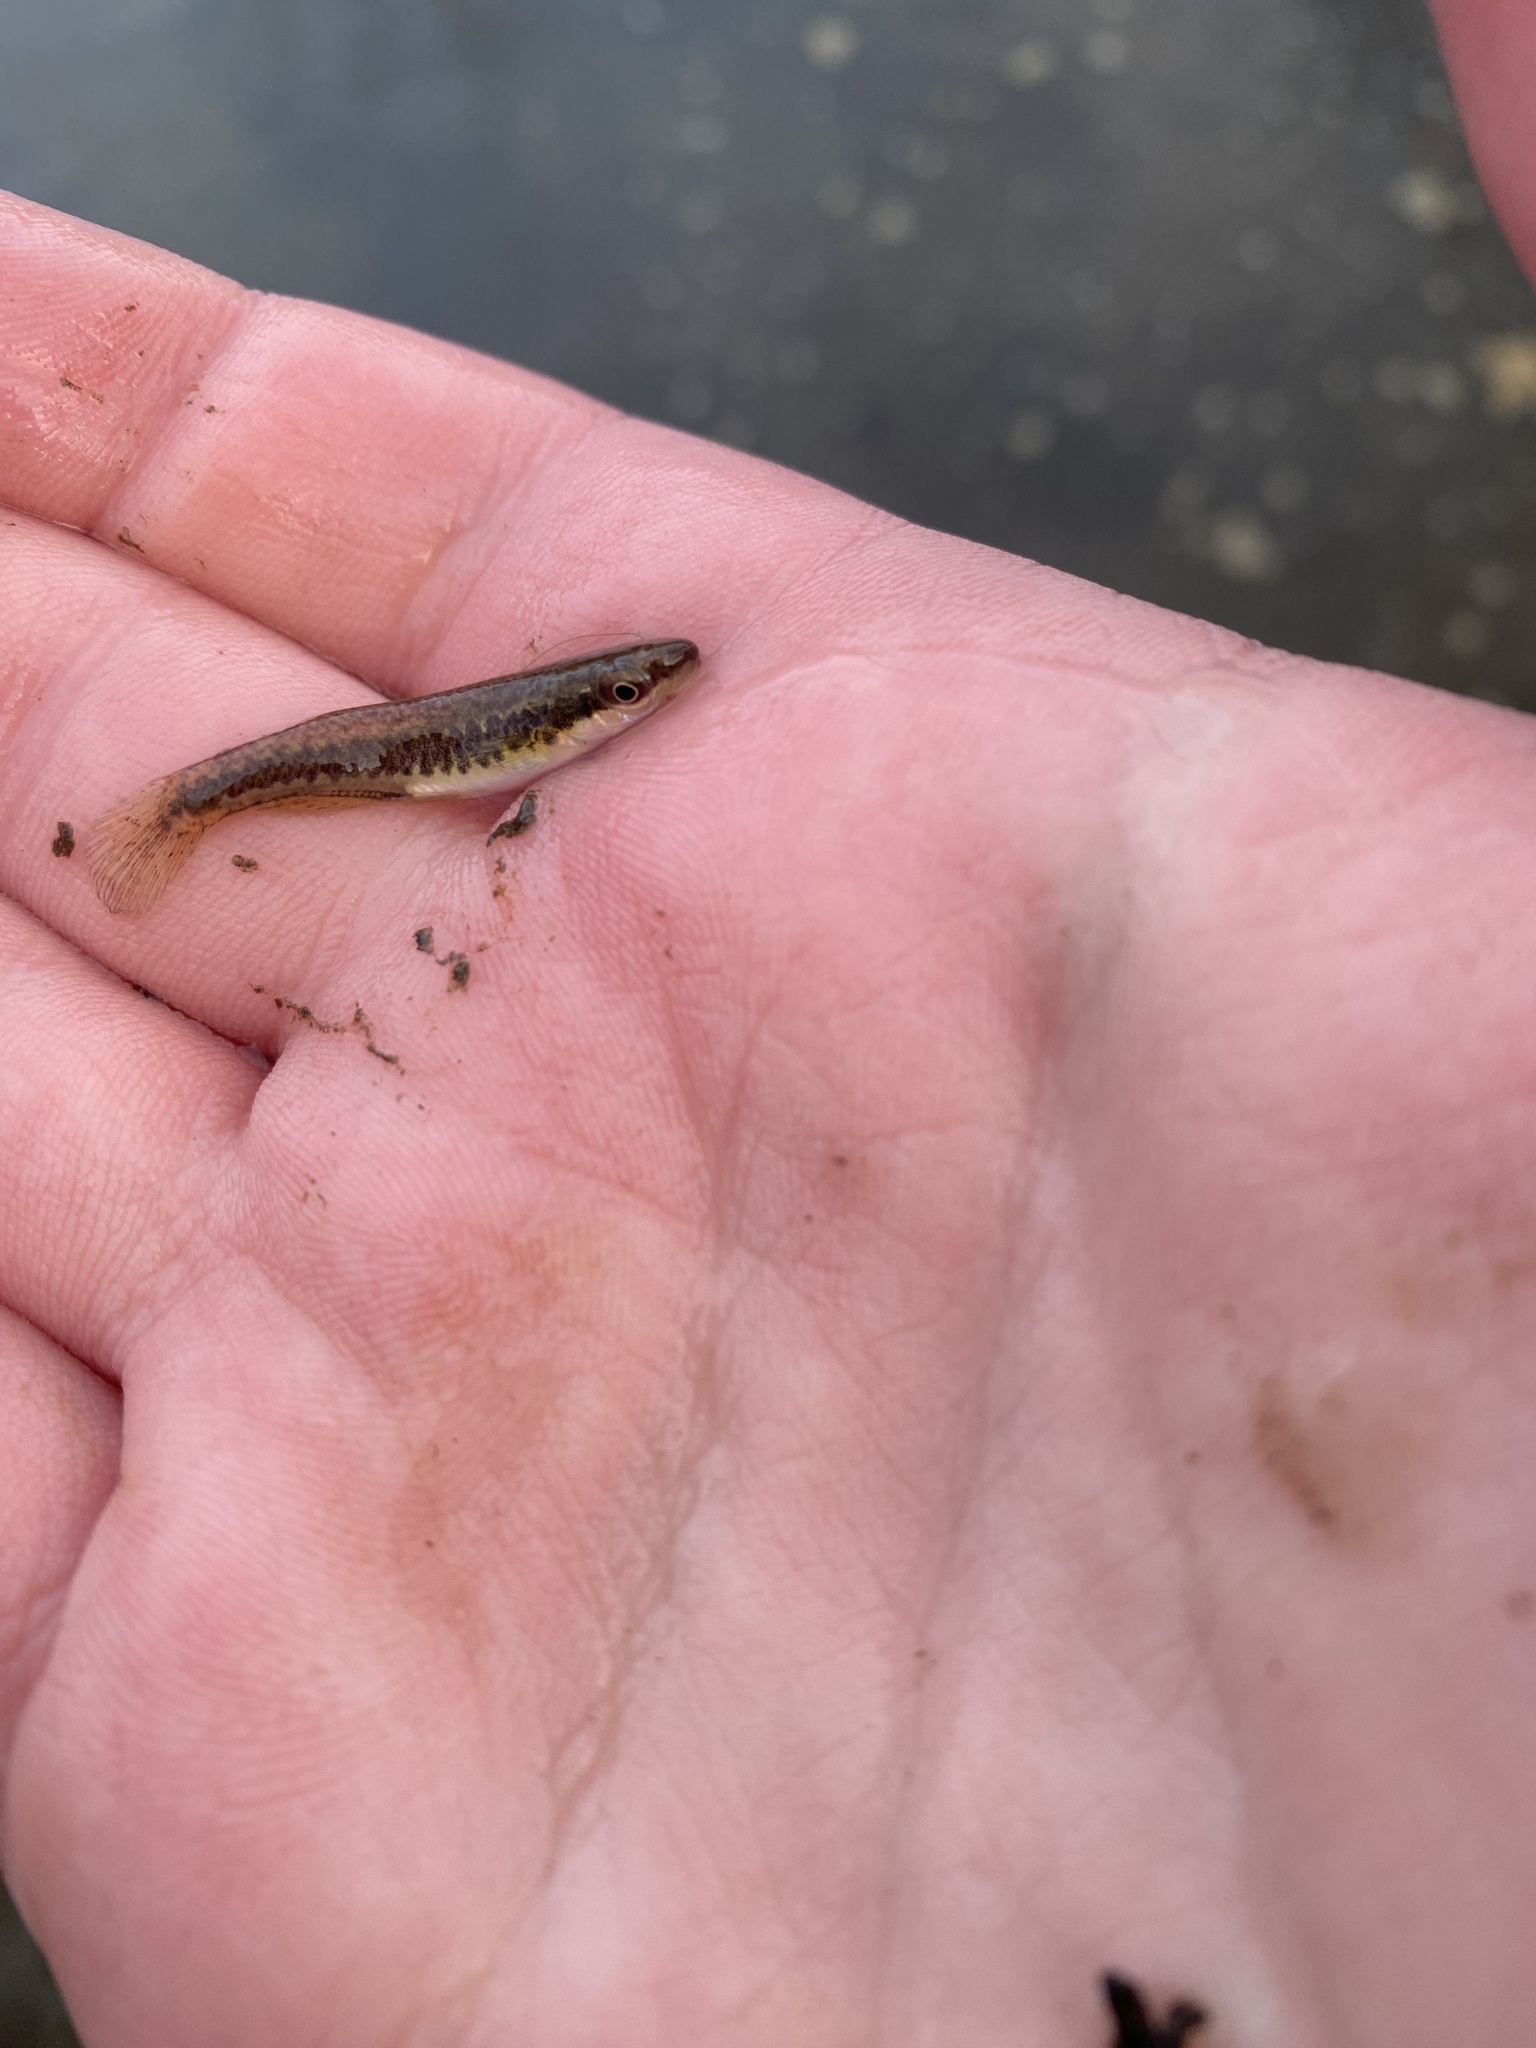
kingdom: Animalia
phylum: Chordata
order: Cyprinodontiformes
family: Fundulidae
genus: Fundulus
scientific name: Fundulus notatus
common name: Blackstripe topminnow
